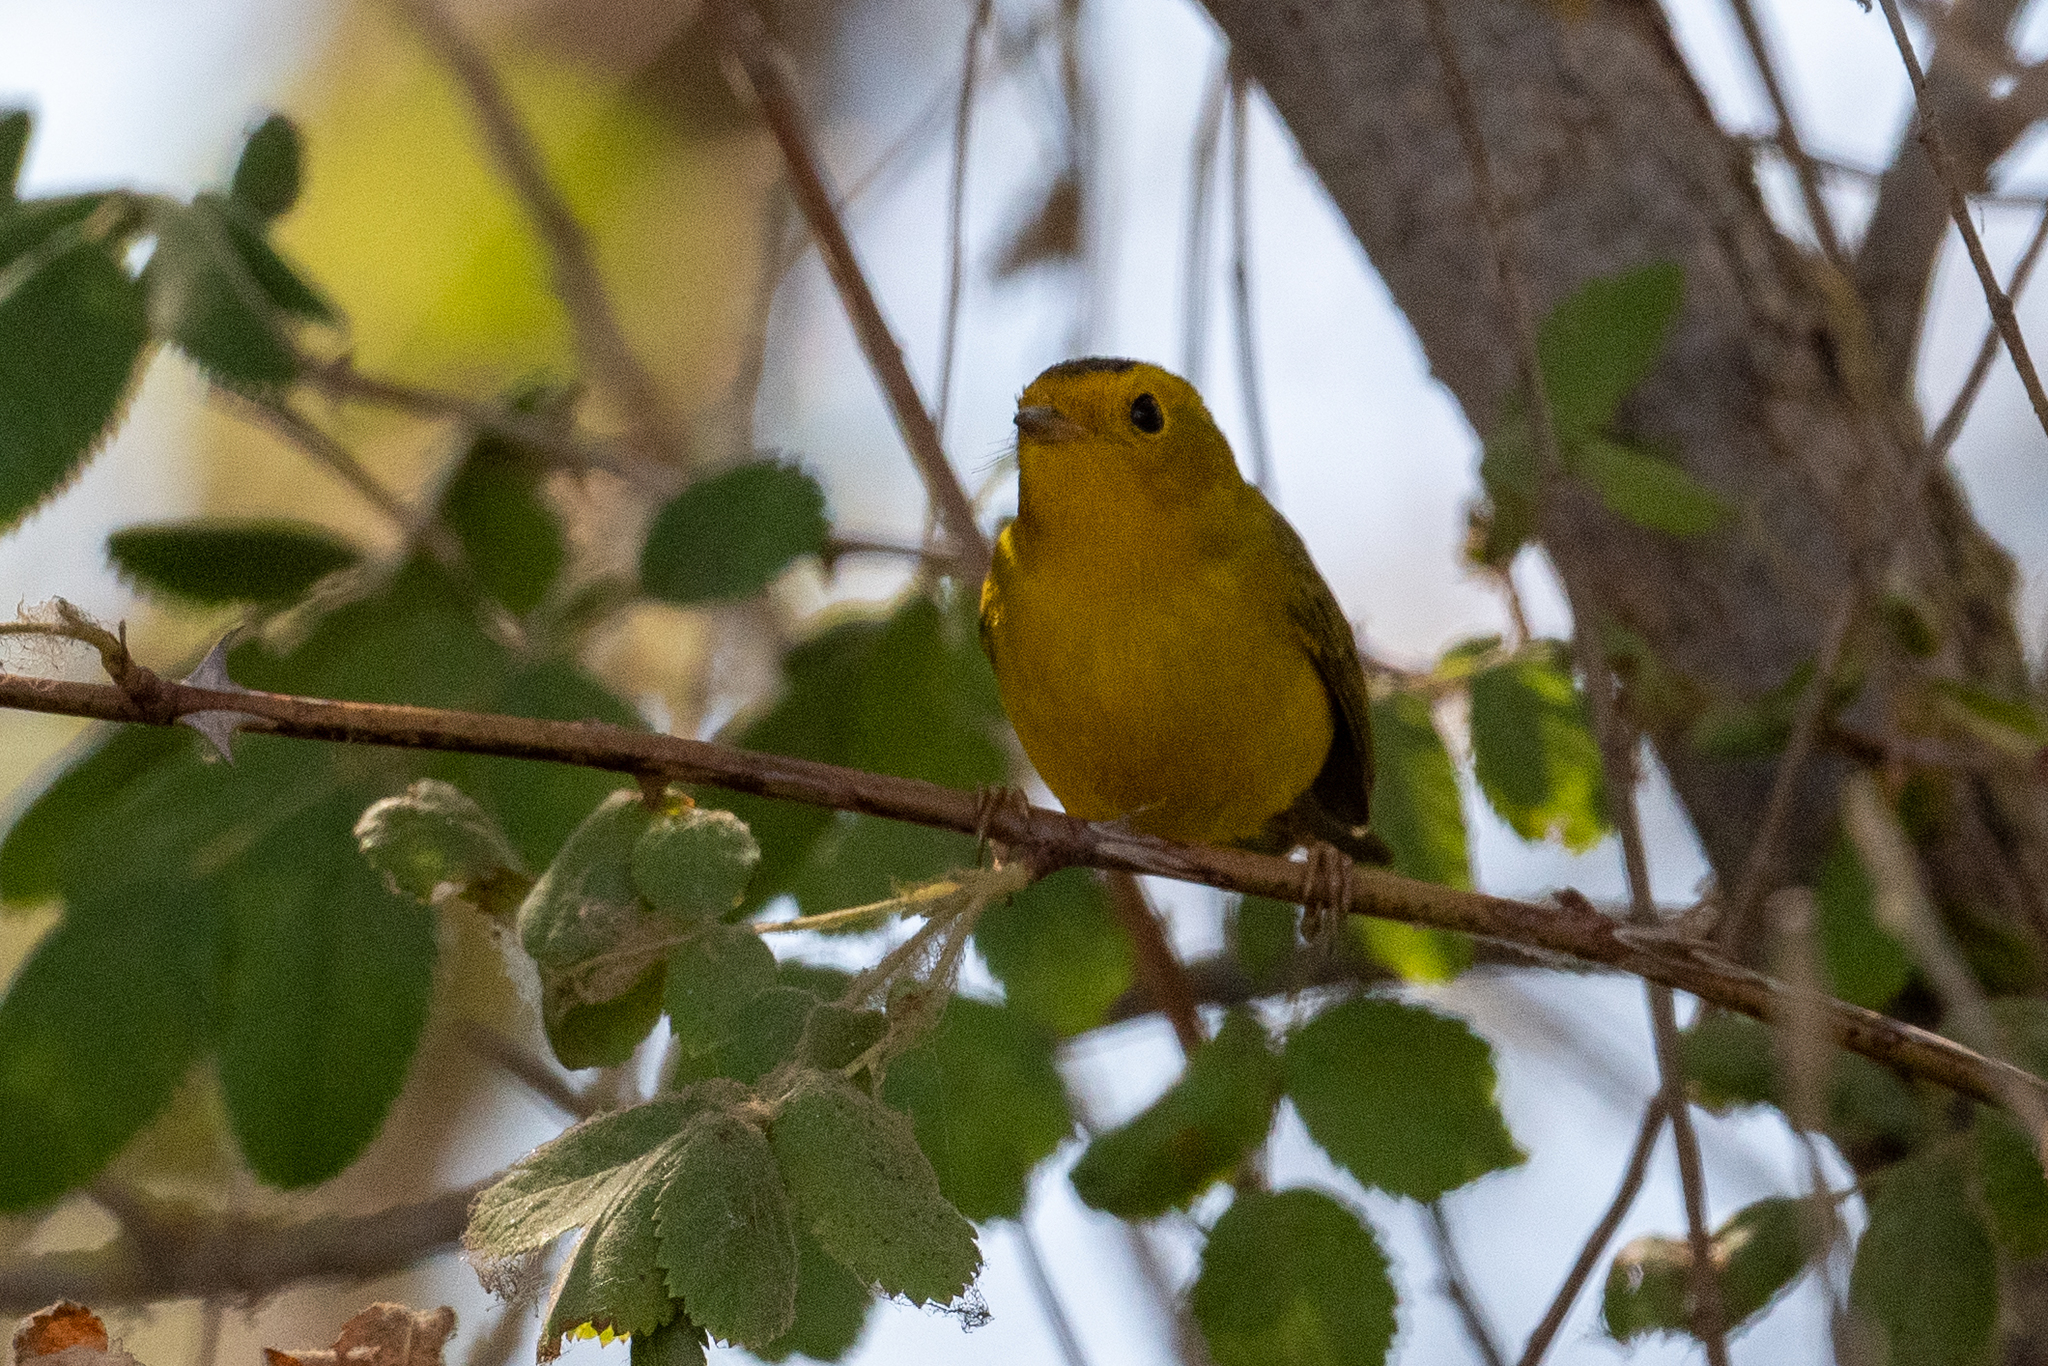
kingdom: Animalia
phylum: Chordata
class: Aves
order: Passeriformes
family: Parulidae
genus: Cardellina
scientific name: Cardellina pusilla
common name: Wilson's warbler
